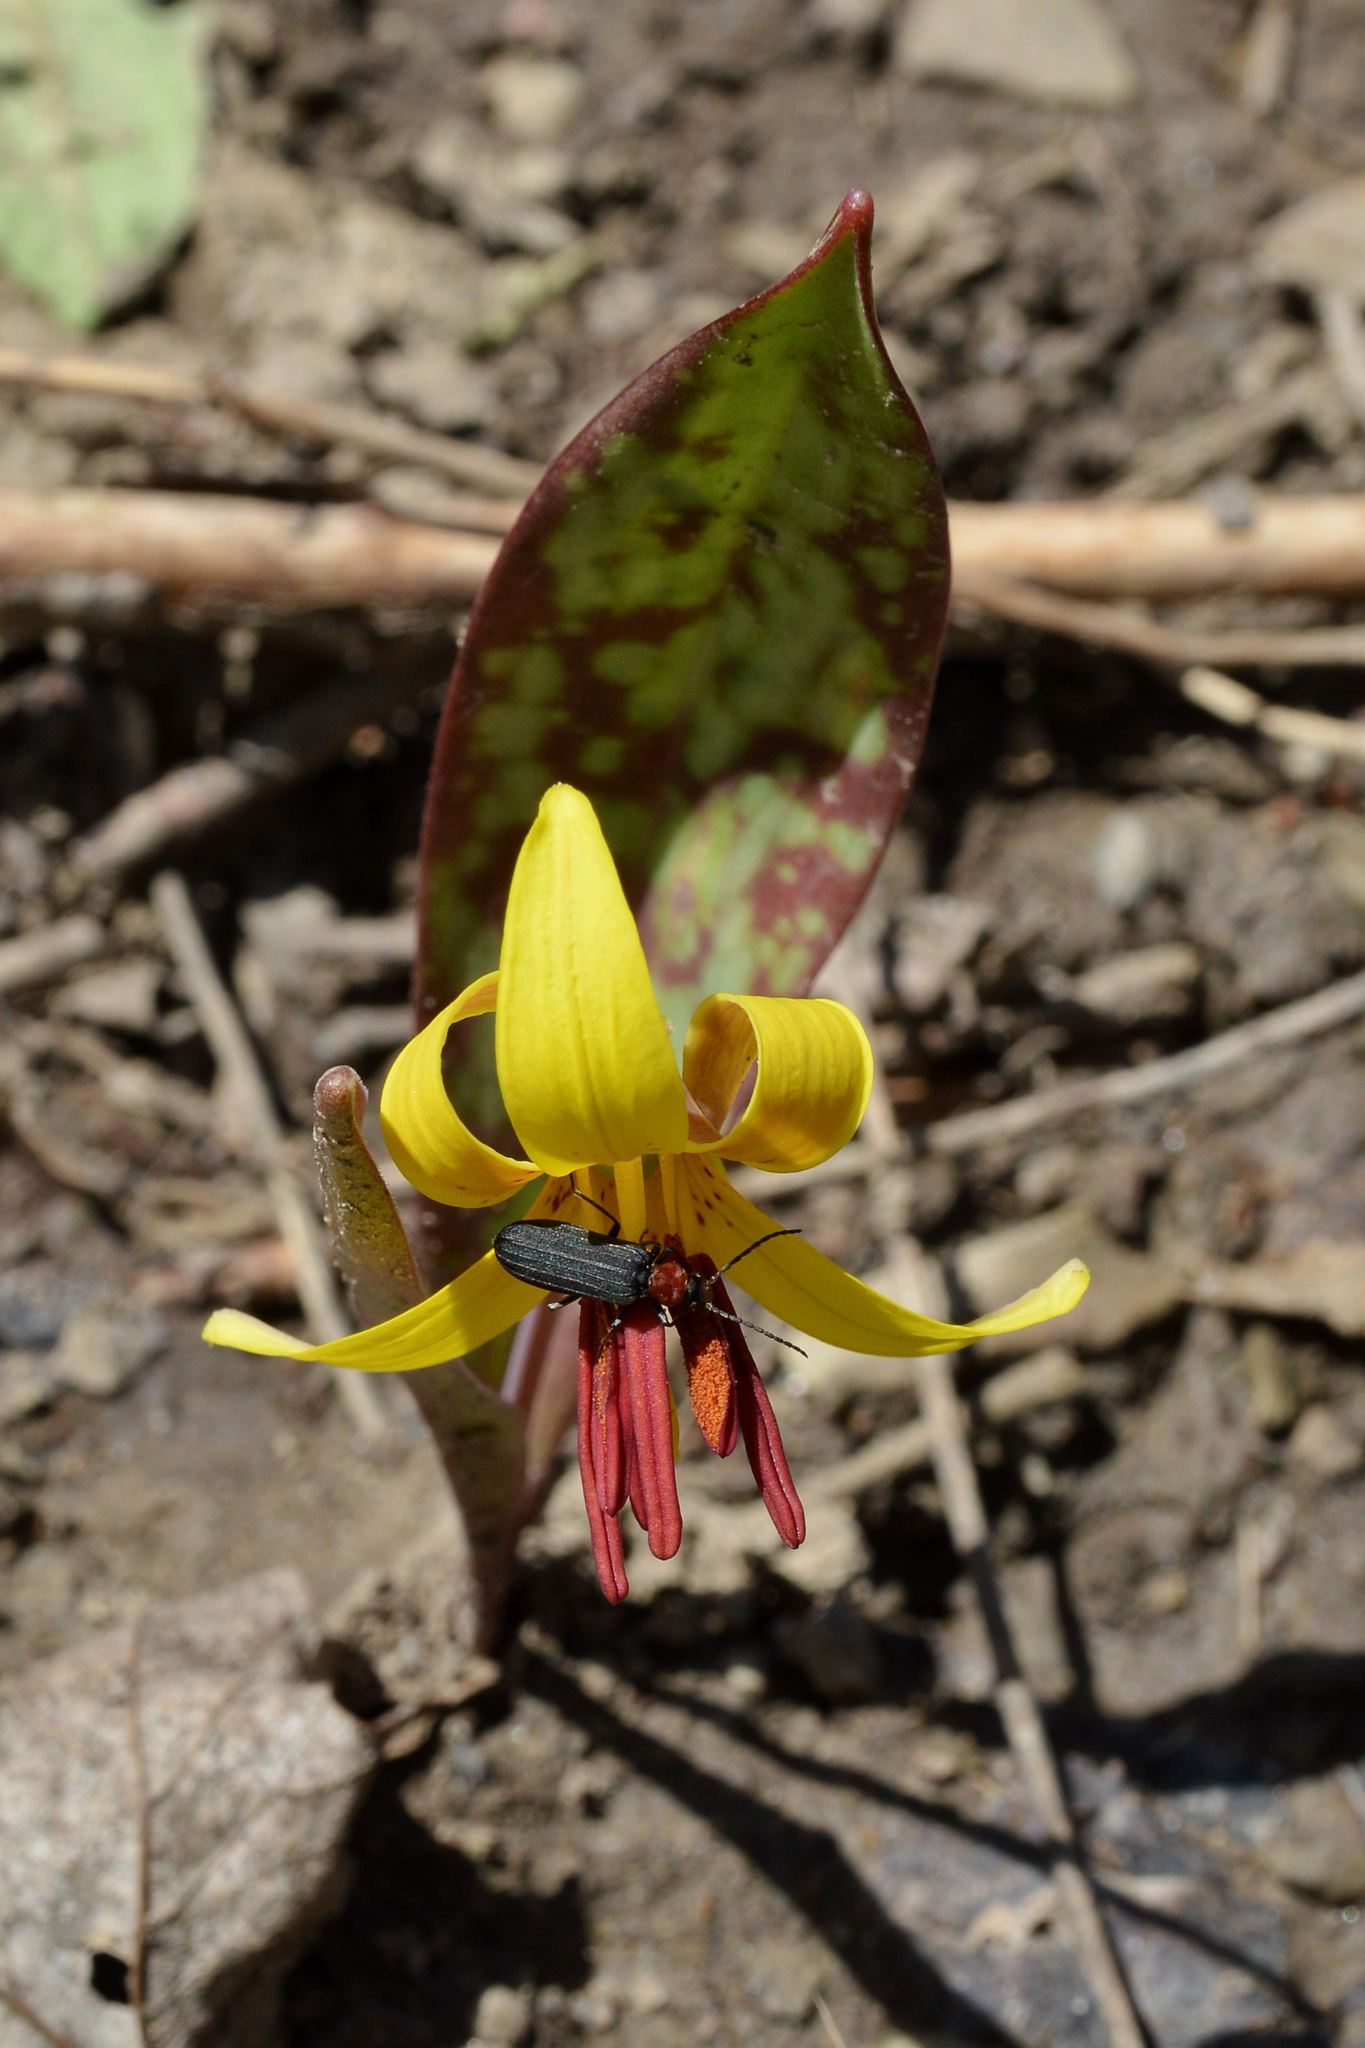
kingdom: Animalia
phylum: Arthropoda
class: Insecta
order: Coleoptera
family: Oedemeridae
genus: Ischnomera
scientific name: Ischnomera
